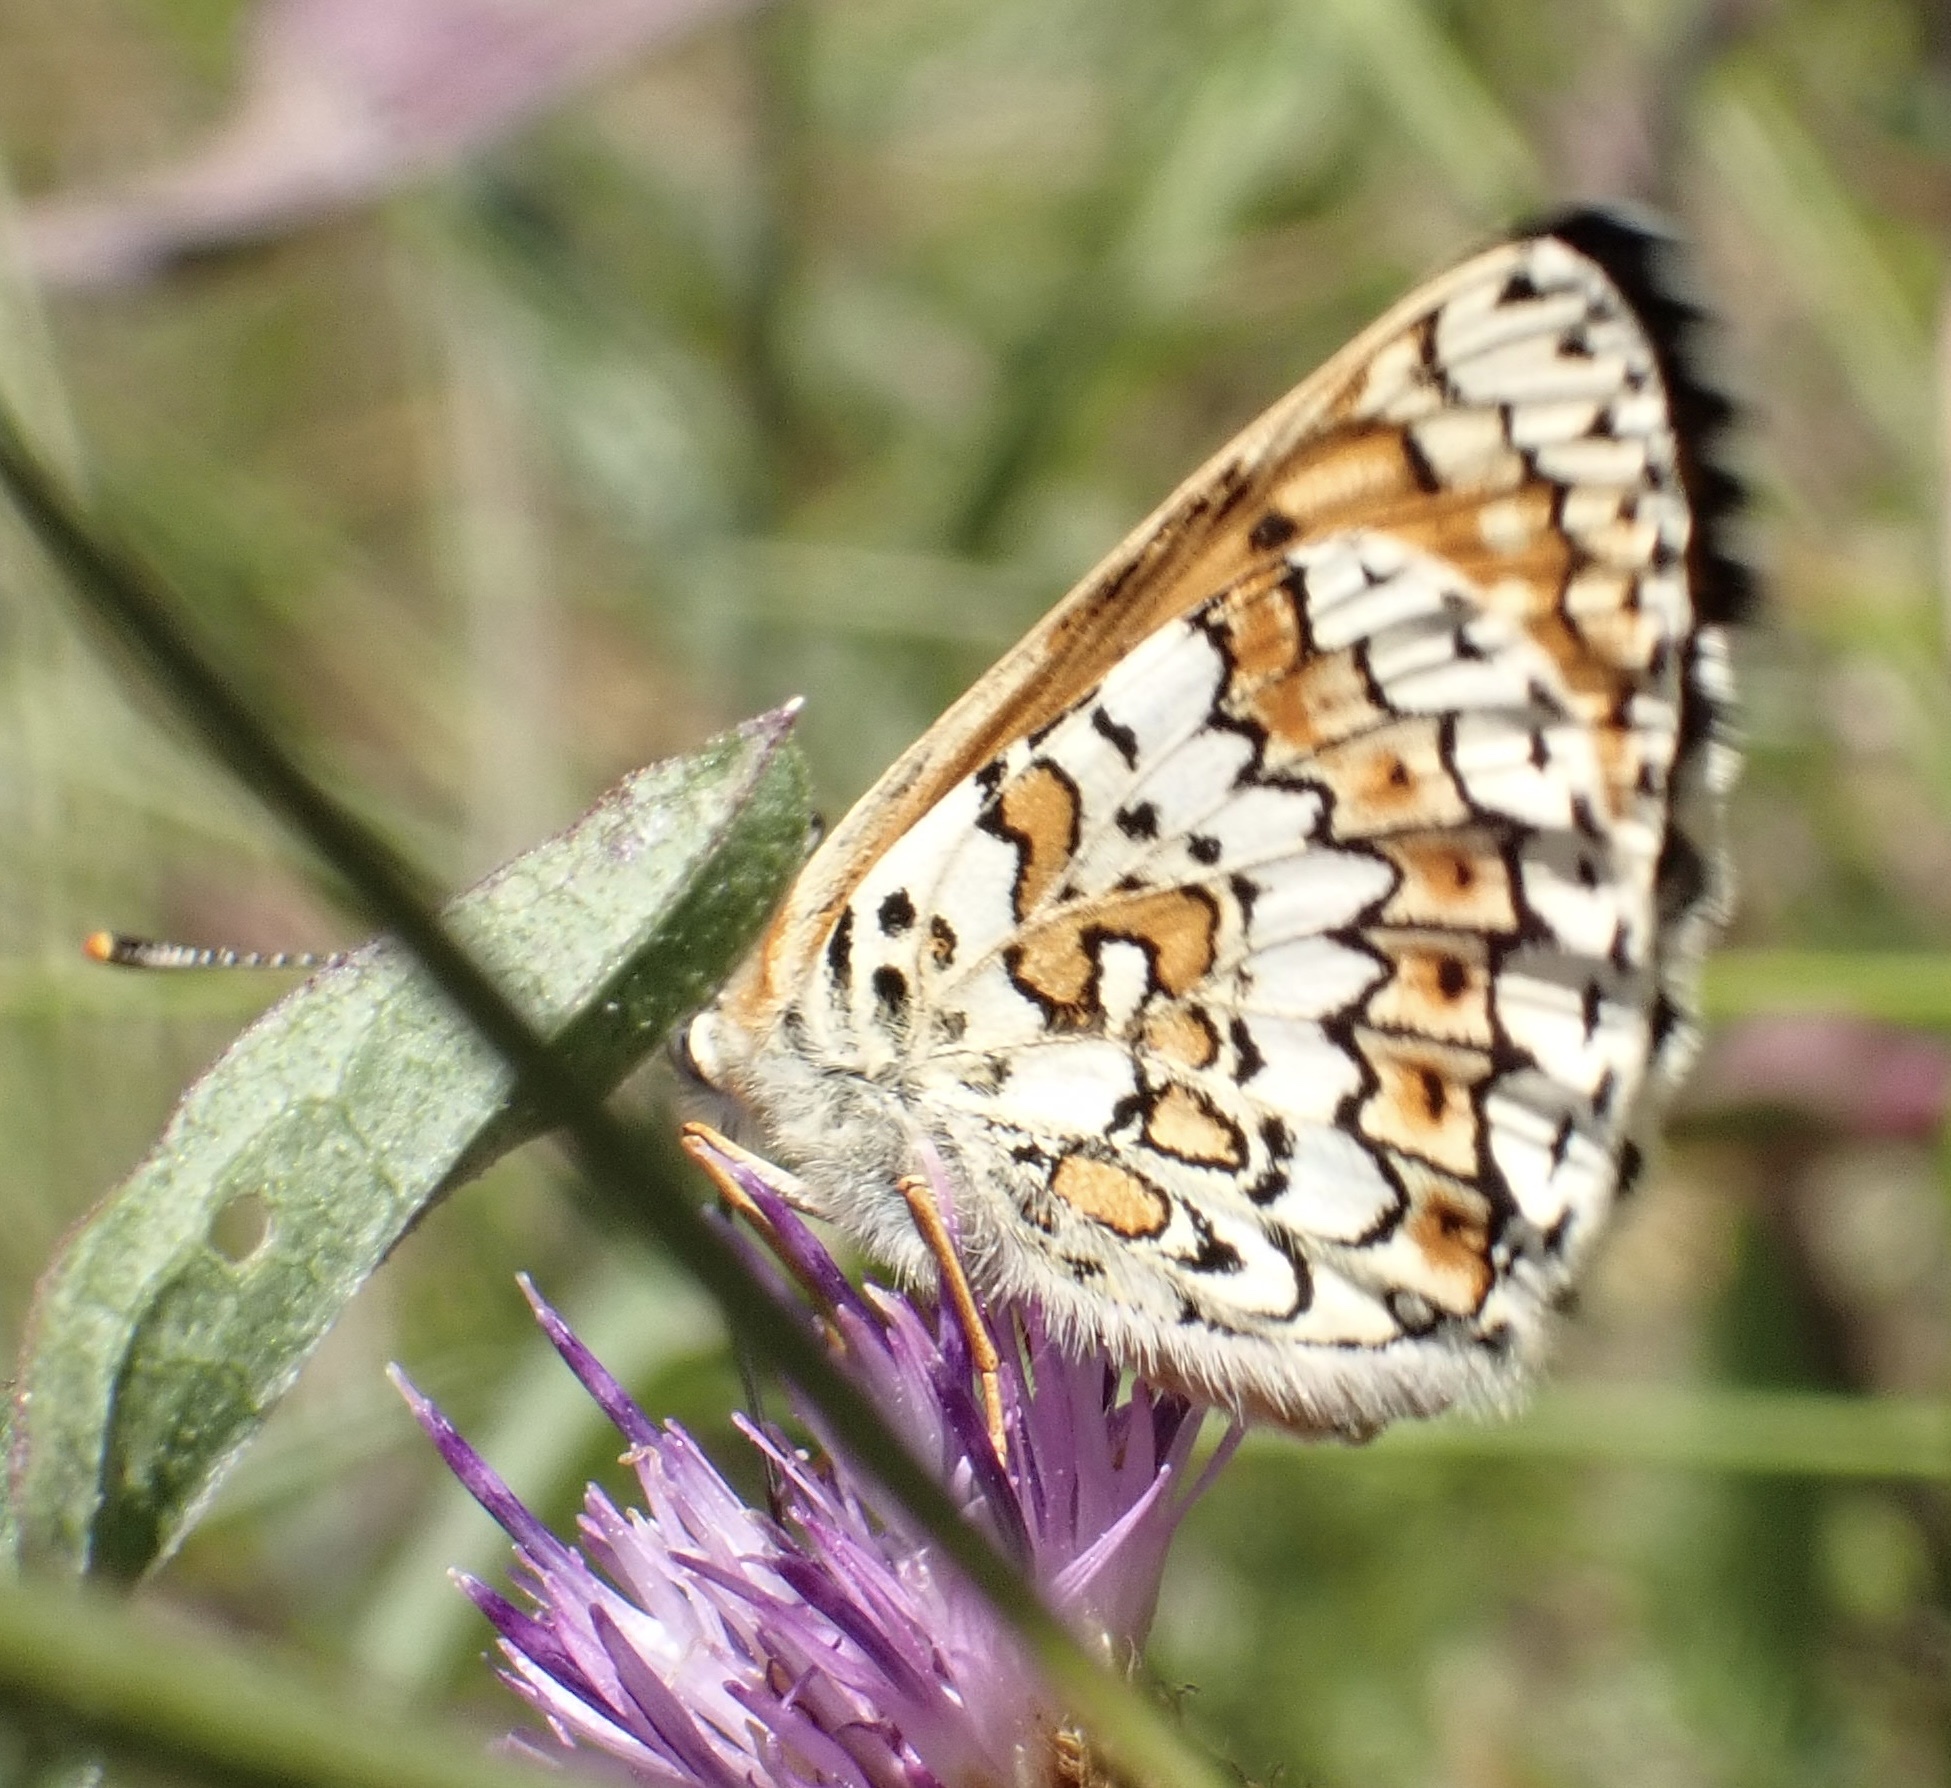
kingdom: Animalia
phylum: Arthropoda
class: Insecta
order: Lepidoptera
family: Nymphalidae
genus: Melitaea
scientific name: Melitaea cinxia
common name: Glanville fritillary
